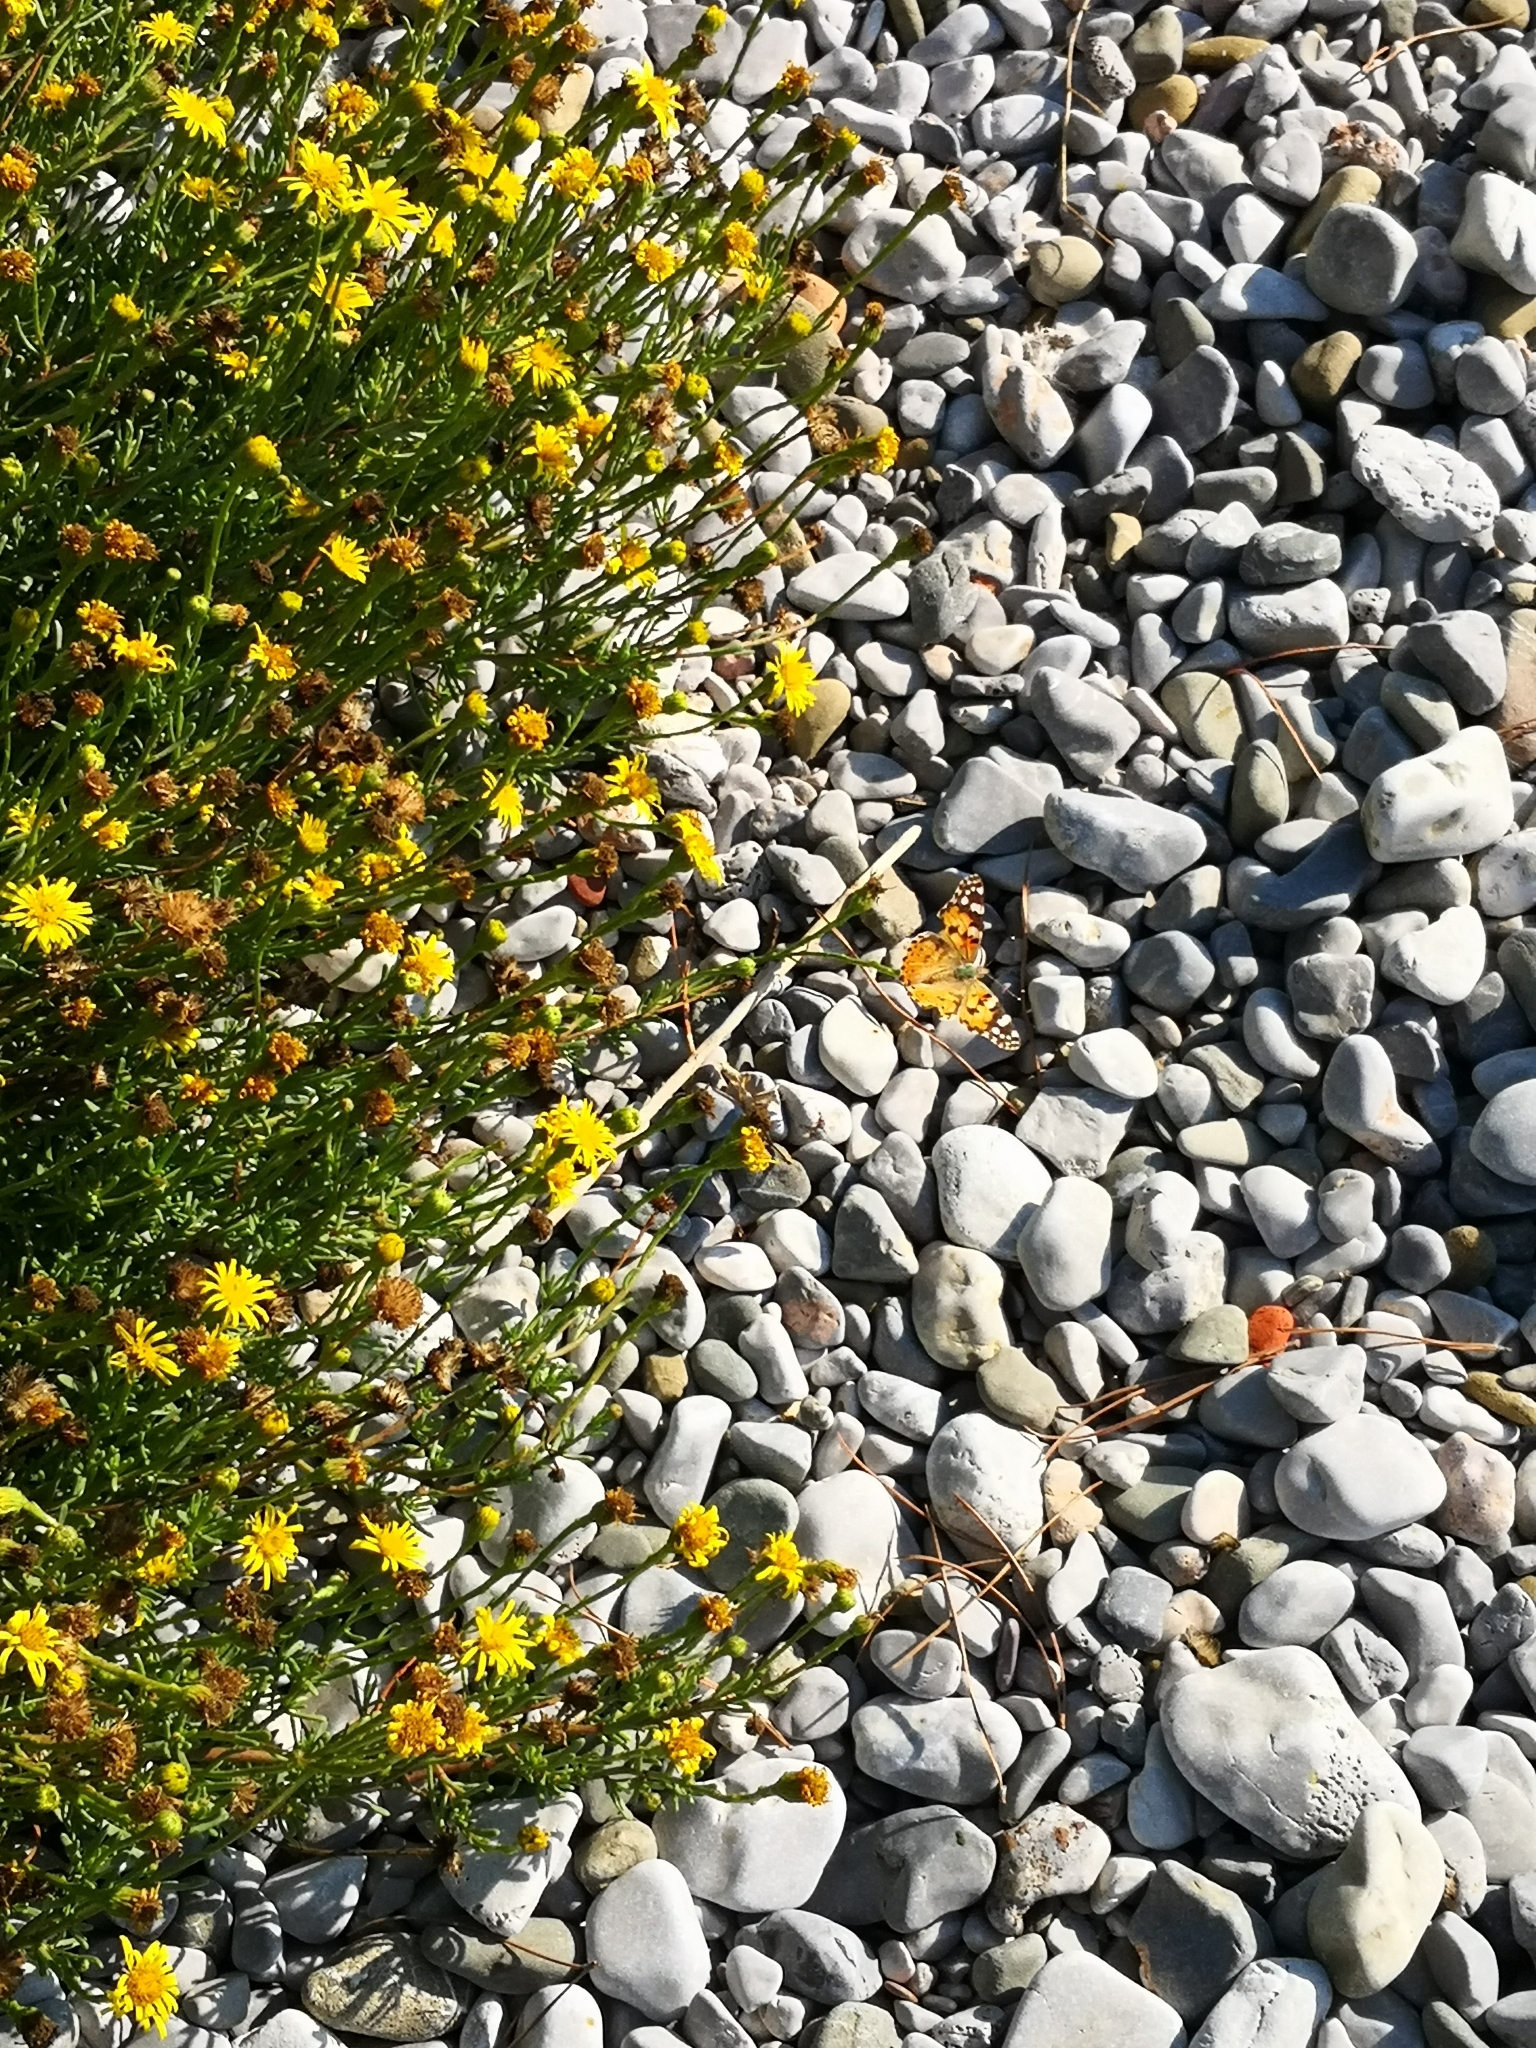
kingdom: Animalia
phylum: Arthropoda
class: Insecta
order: Lepidoptera
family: Nymphalidae
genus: Vanessa
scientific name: Vanessa cardui
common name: Painted lady
